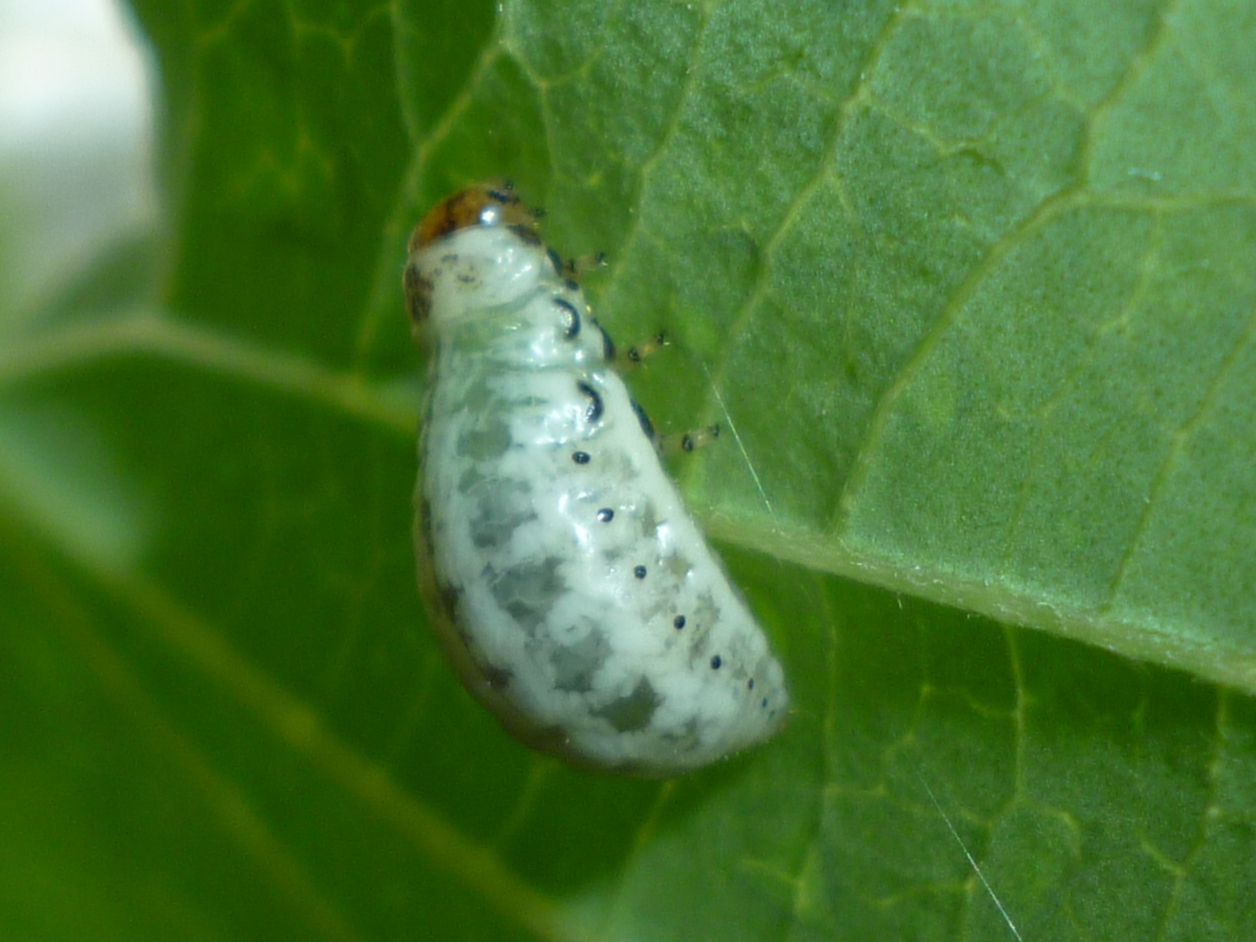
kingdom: Animalia
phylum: Arthropoda
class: Insecta
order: Coleoptera
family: Chrysomelidae
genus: Calligrapha
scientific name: Calligrapha philadelphica
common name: Dogwood leaf beetle
